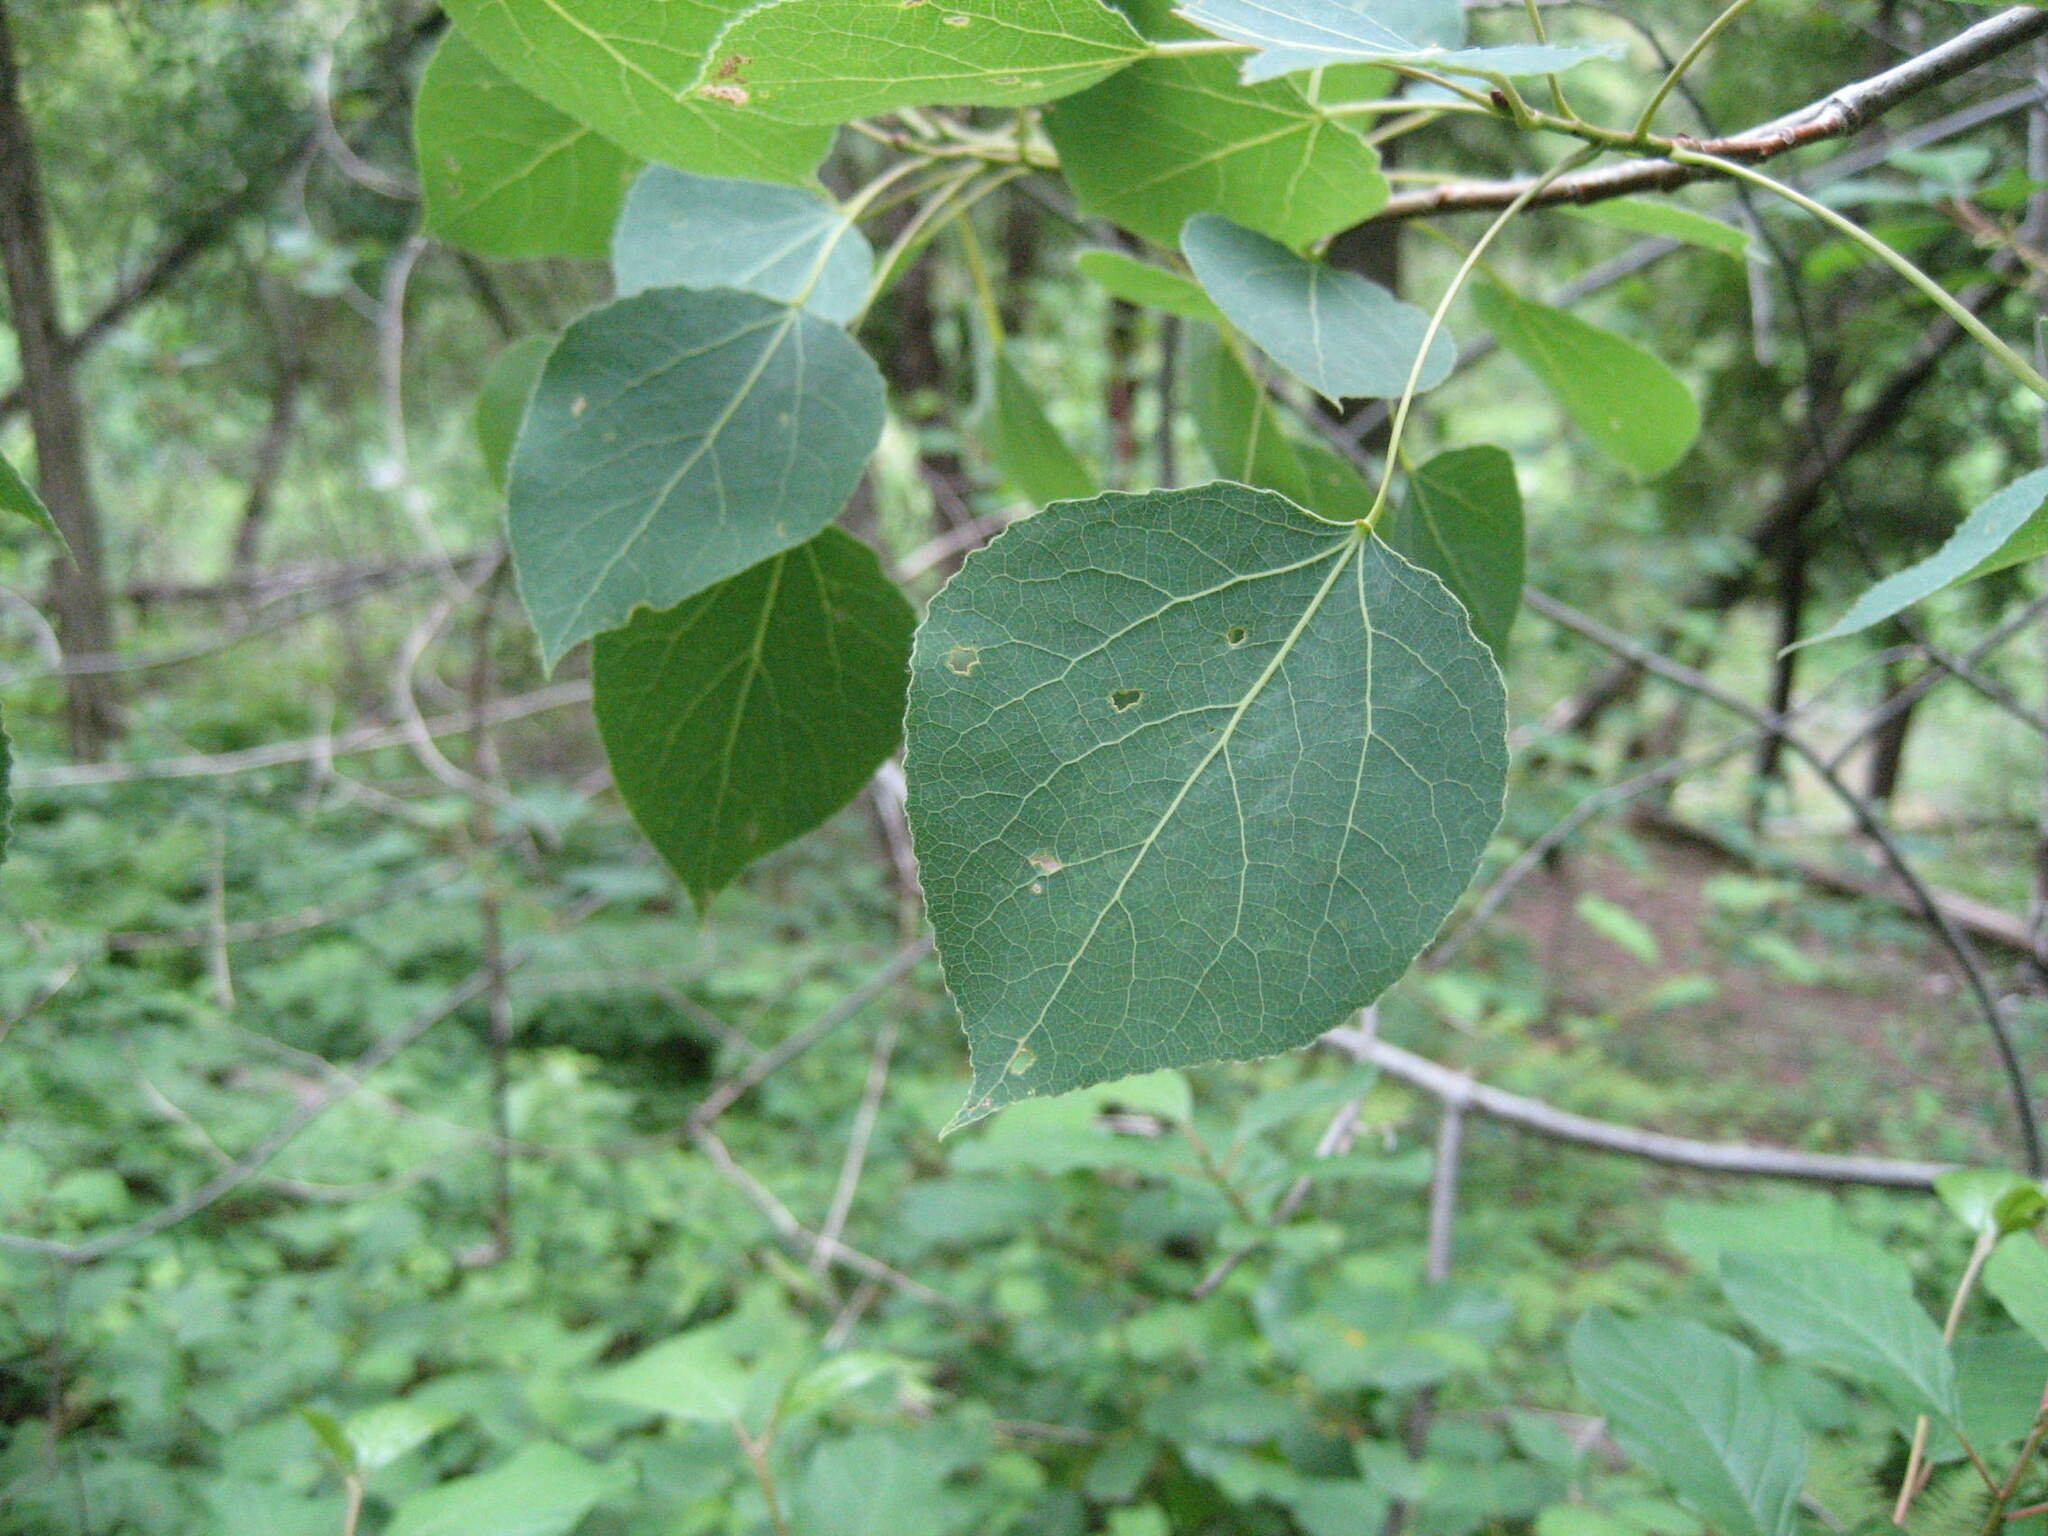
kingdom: Plantae
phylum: Tracheophyta
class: Magnoliopsida
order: Malpighiales
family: Salicaceae
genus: Populus
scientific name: Populus tremuloides
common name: Quaking aspen
